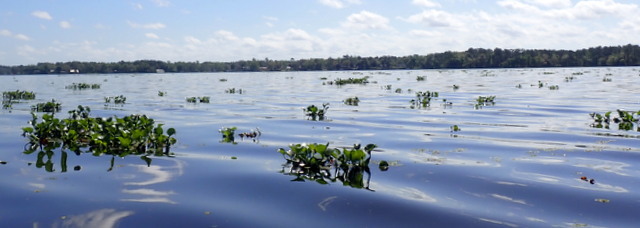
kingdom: Plantae
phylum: Tracheophyta
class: Liliopsida
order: Commelinales
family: Pontederiaceae
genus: Pontederia
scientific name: Pontederia crassipes
